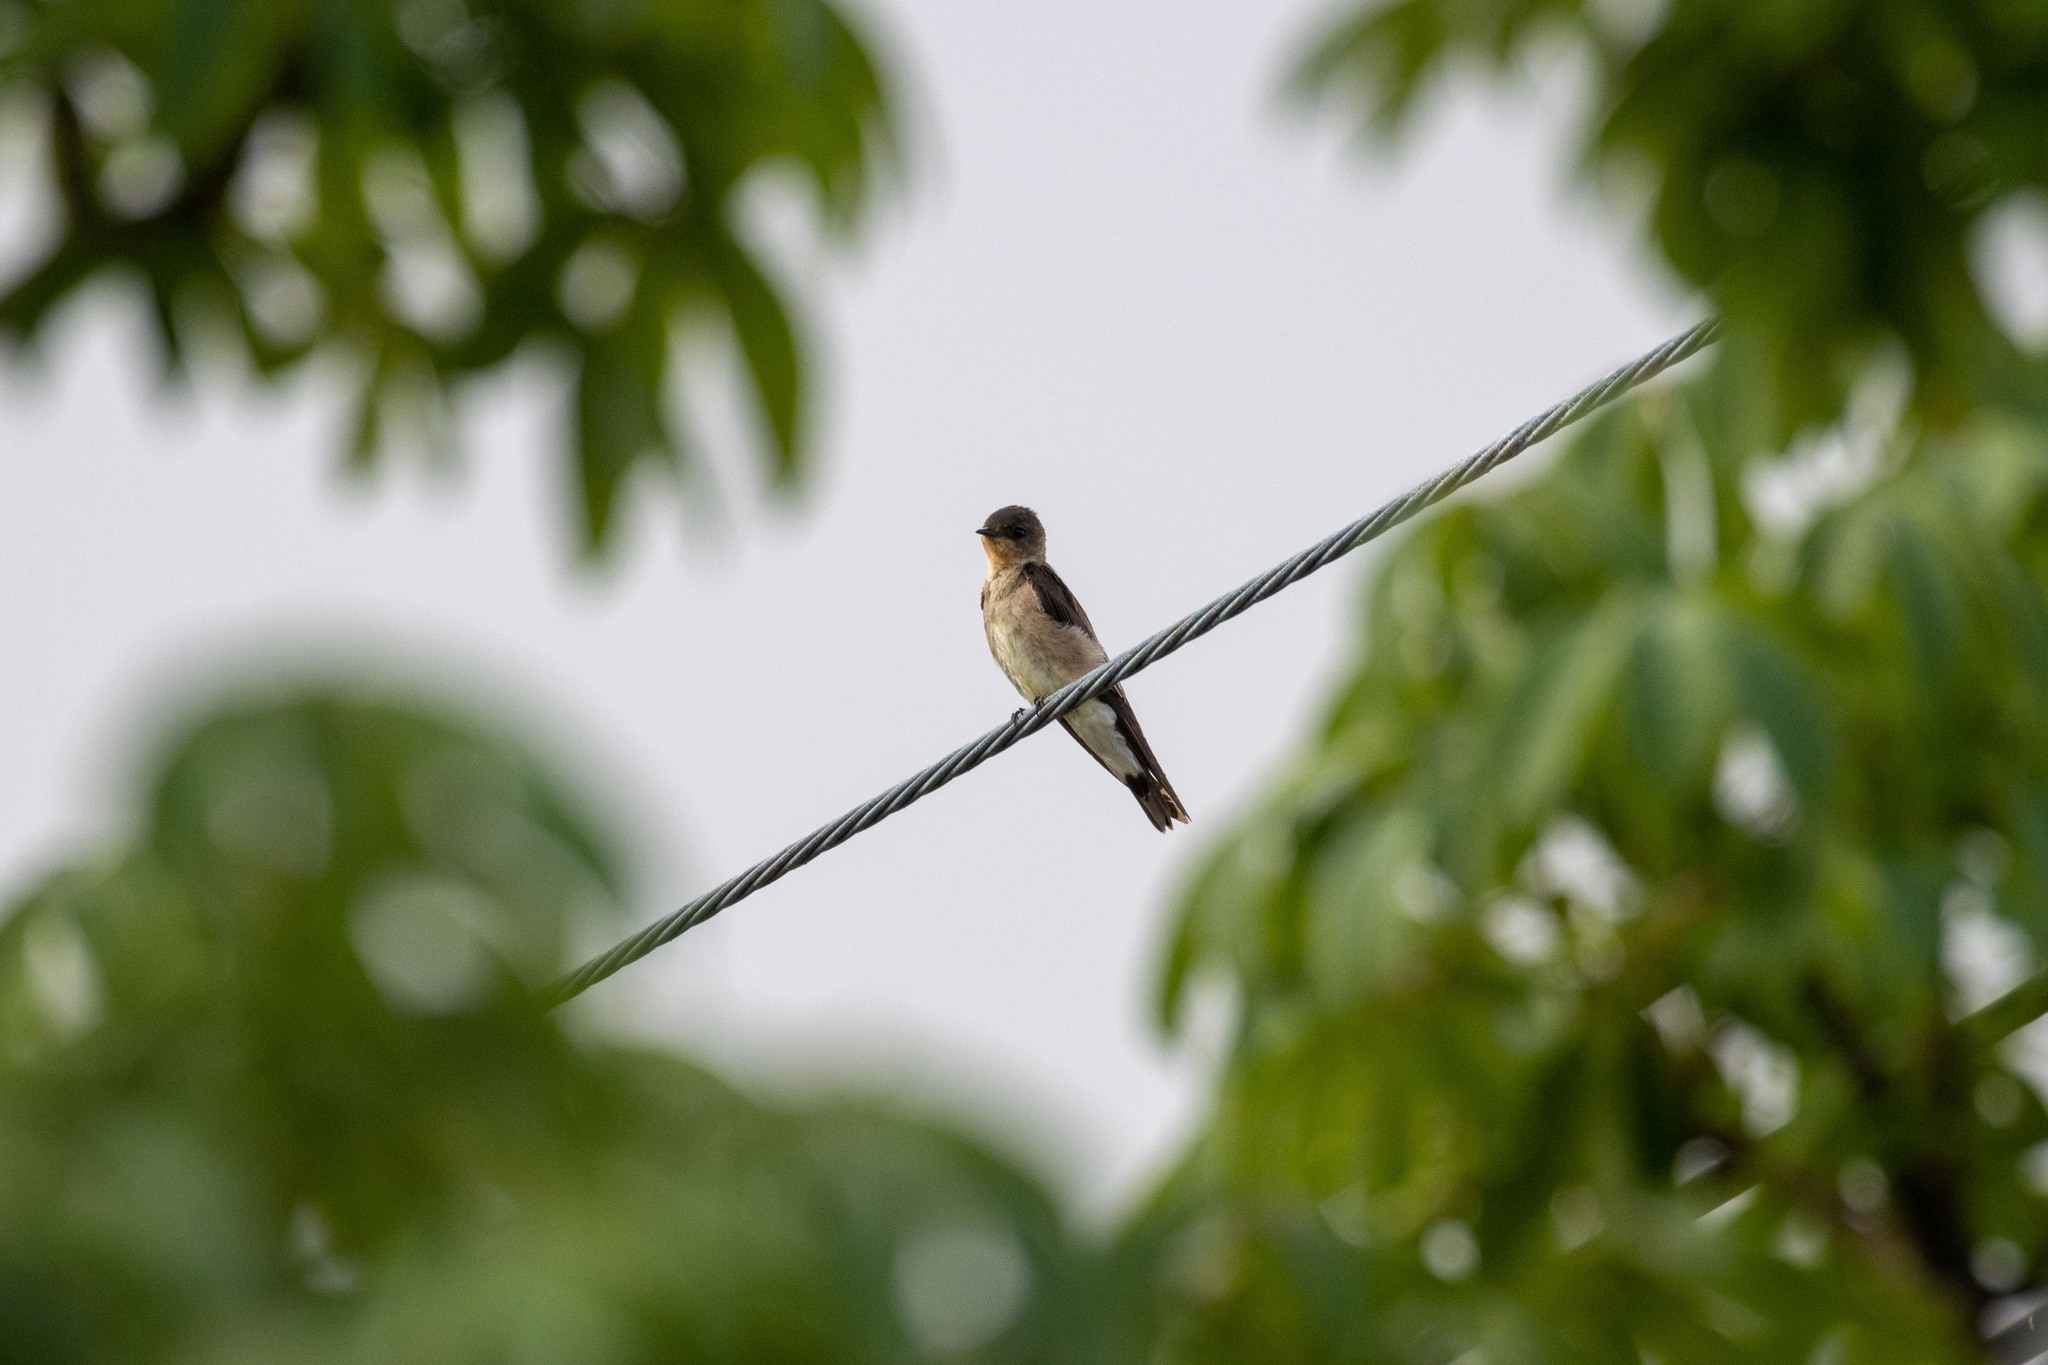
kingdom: Animalia
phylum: Chordata
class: Aves
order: Passeriformes
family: Hirundinidae
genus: Stelgidopteryx
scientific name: Stelgidopteryx ruficollis
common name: Southern rough-winged swallow
